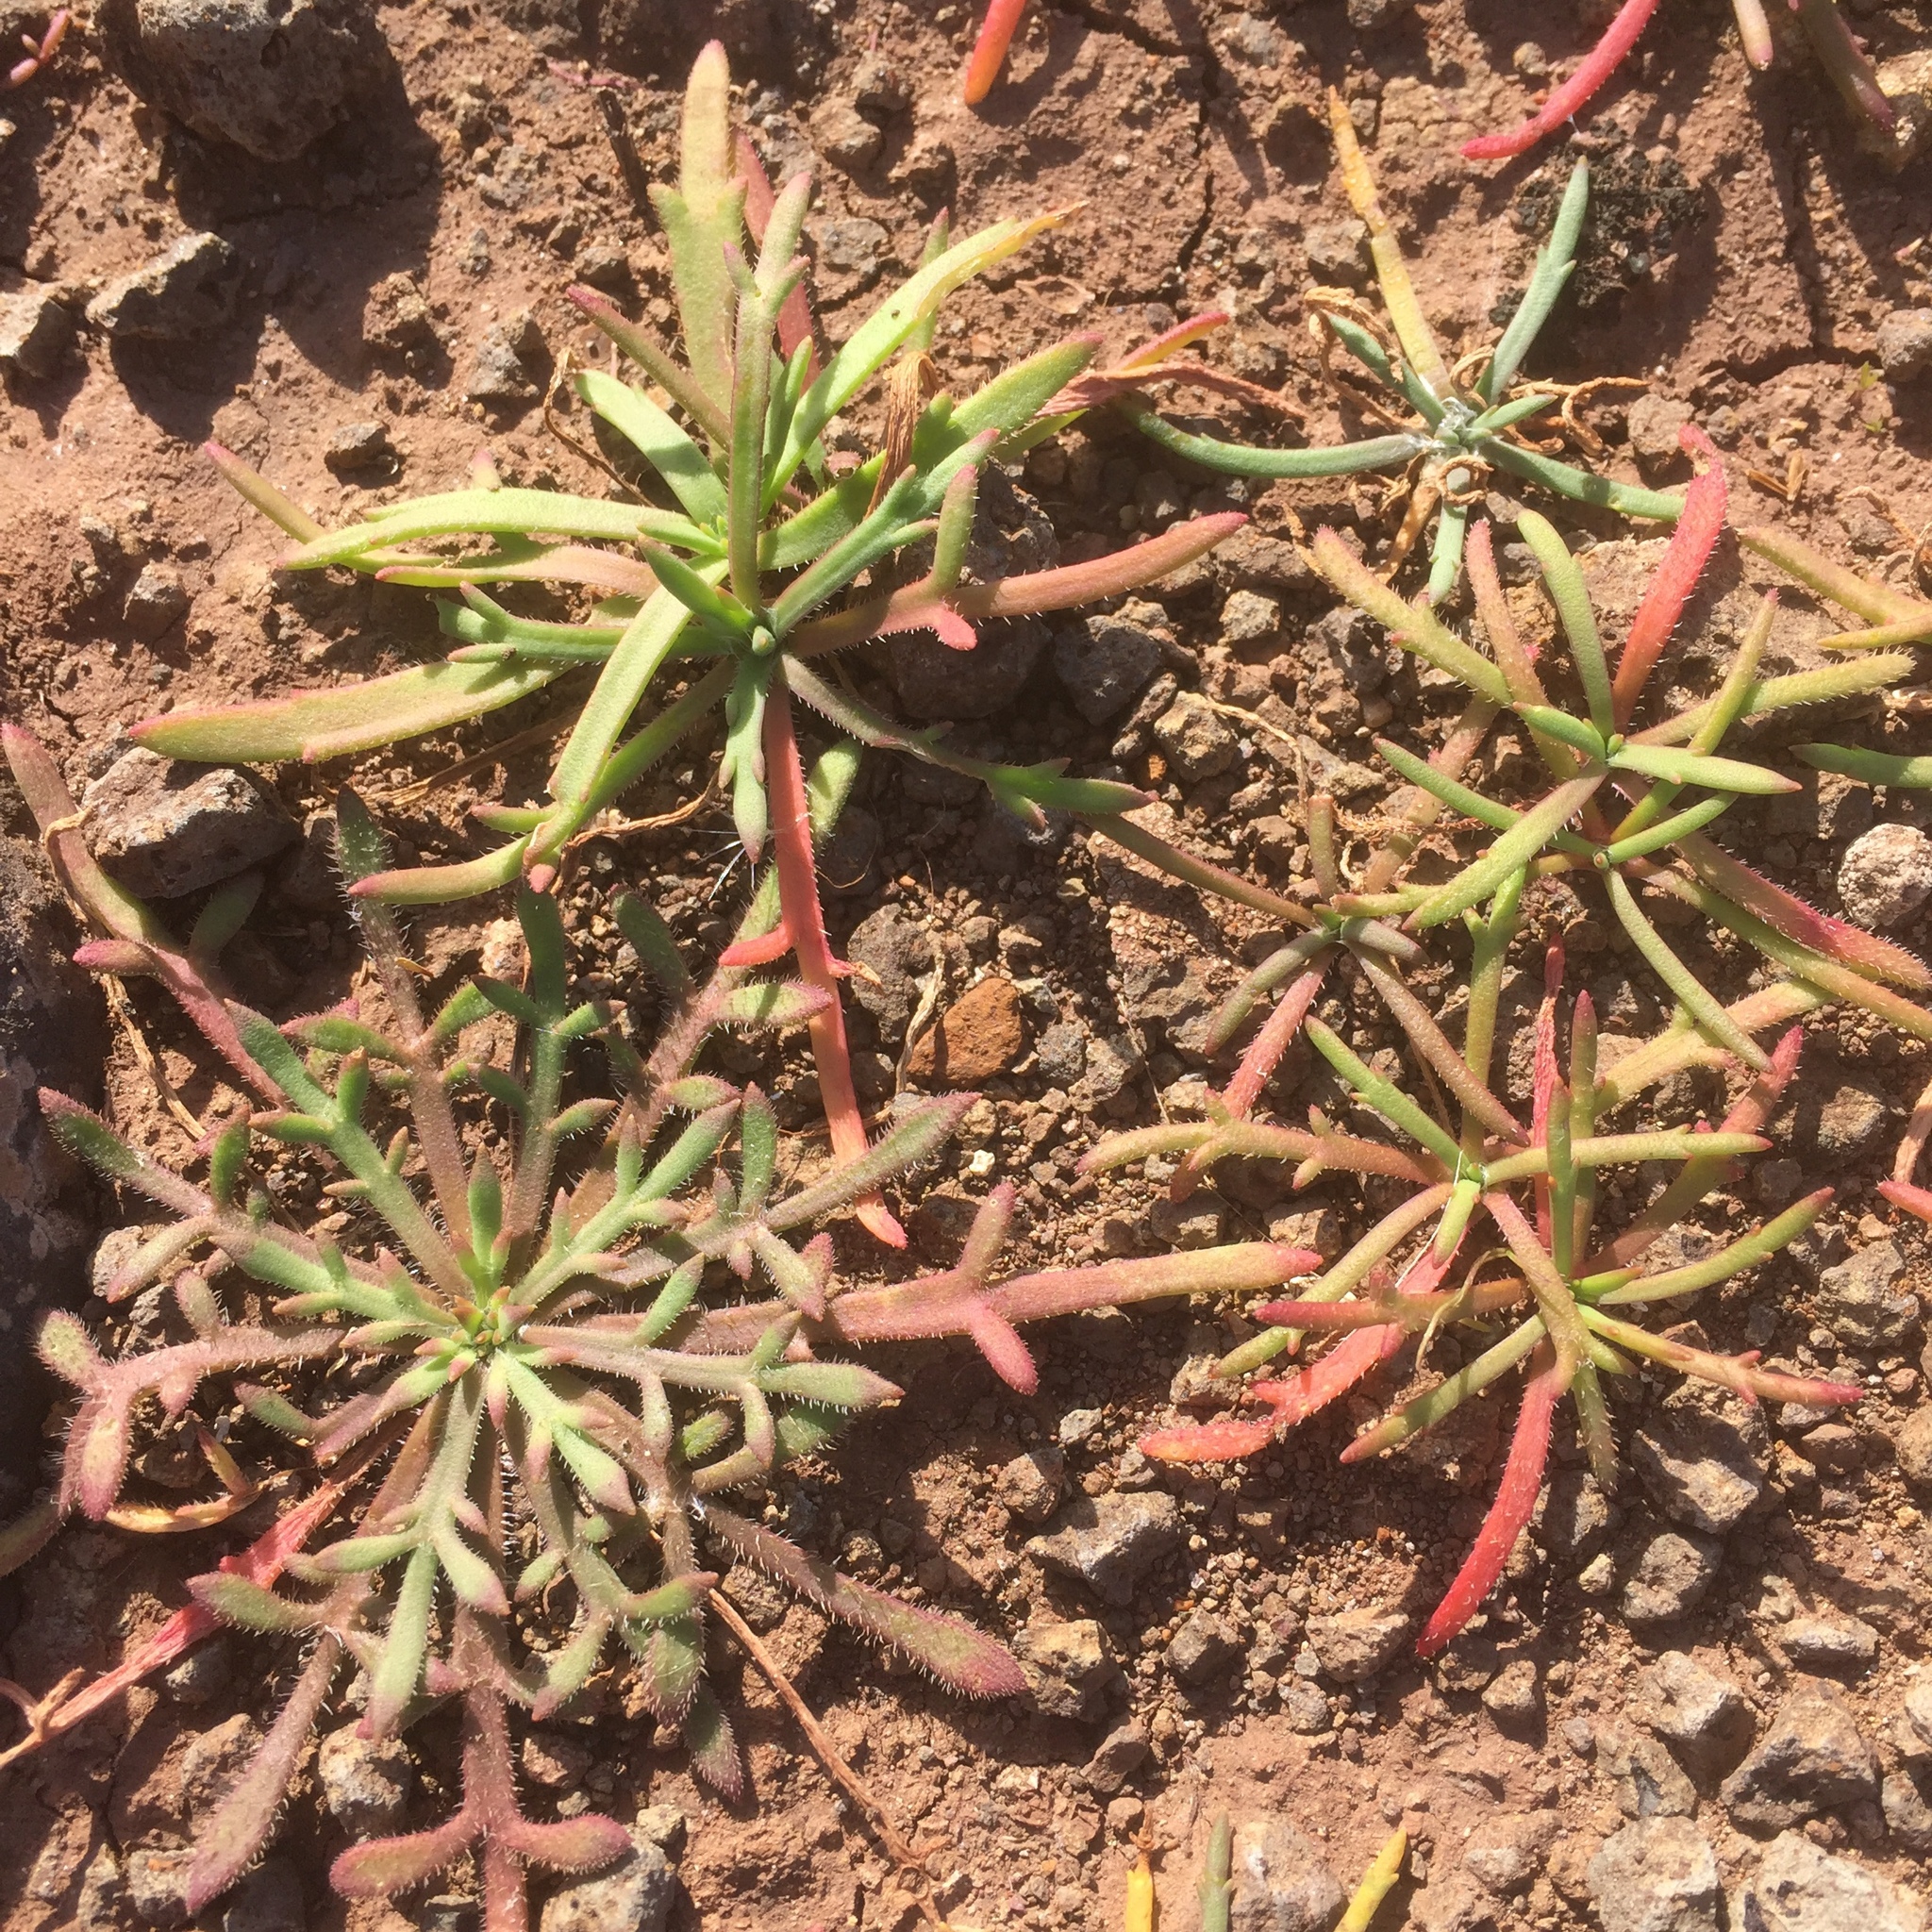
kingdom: Plantae
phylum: Tracheophyta
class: Magnoliopsida
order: Lamiales
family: Plantaginaceae
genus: Plantago
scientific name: Plantago coronopus
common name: Buck's-horn plantain
